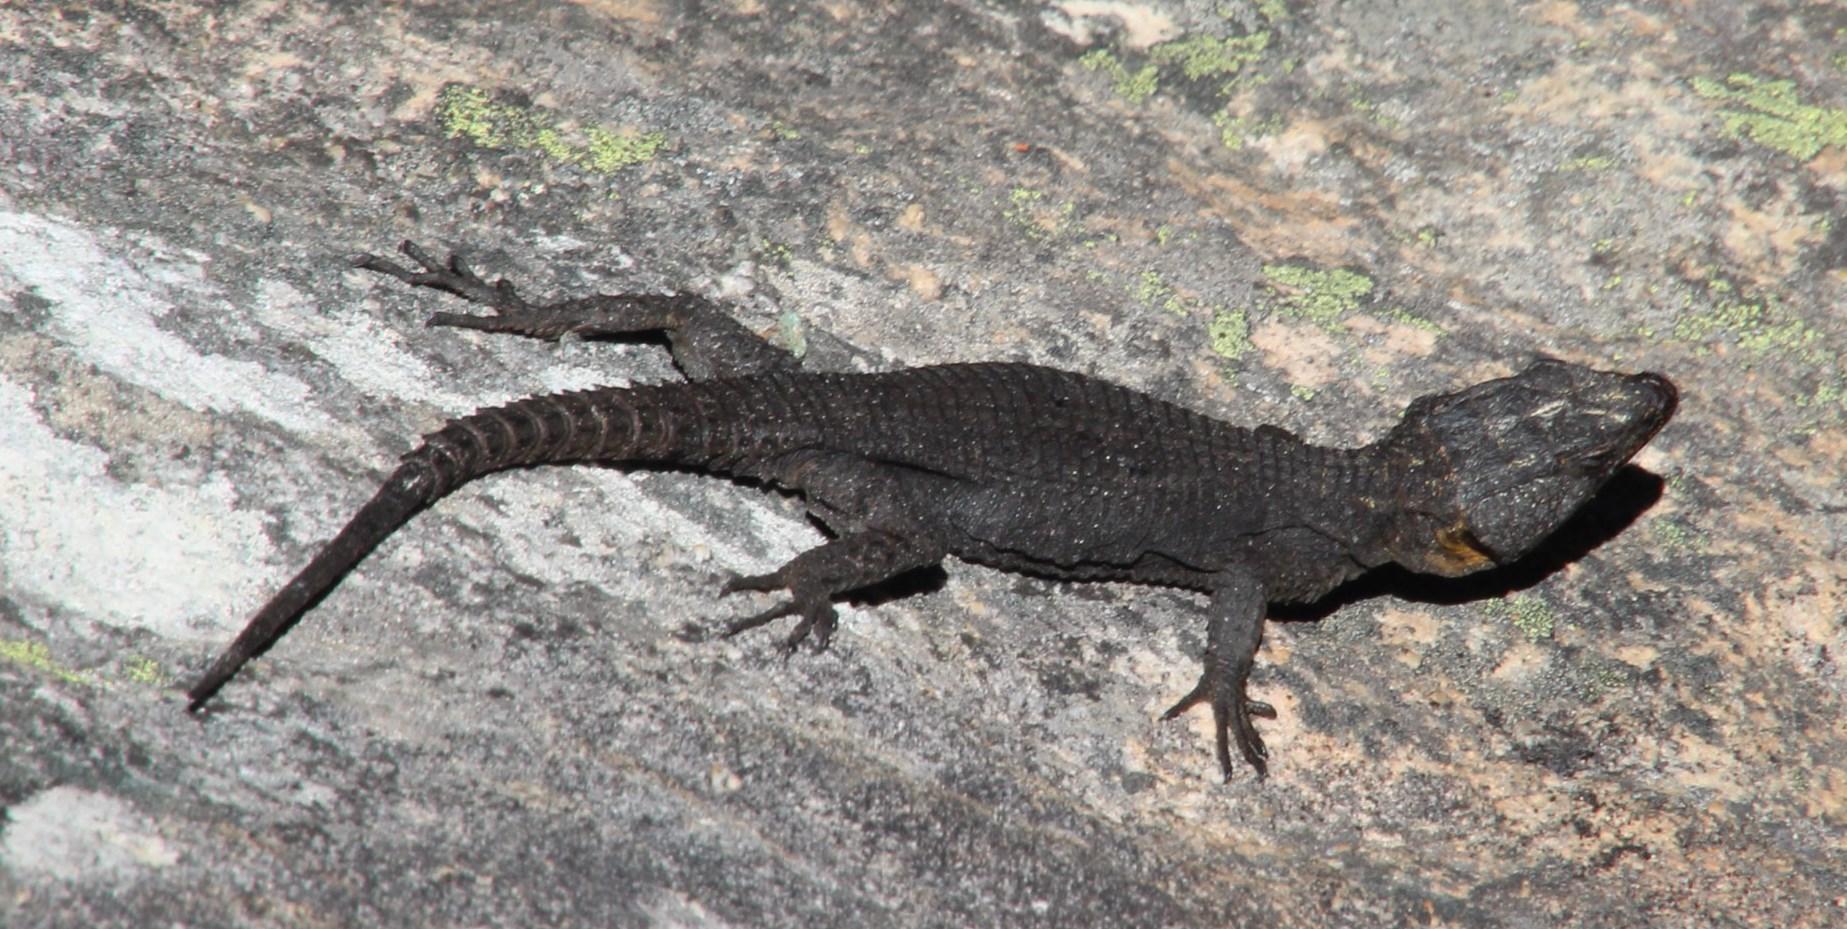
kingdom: Animalia
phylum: Chordata
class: Squamata
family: Cordylidae
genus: Hemicordylus
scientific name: Hemicordylus capensis
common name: Graceful crag lizard
